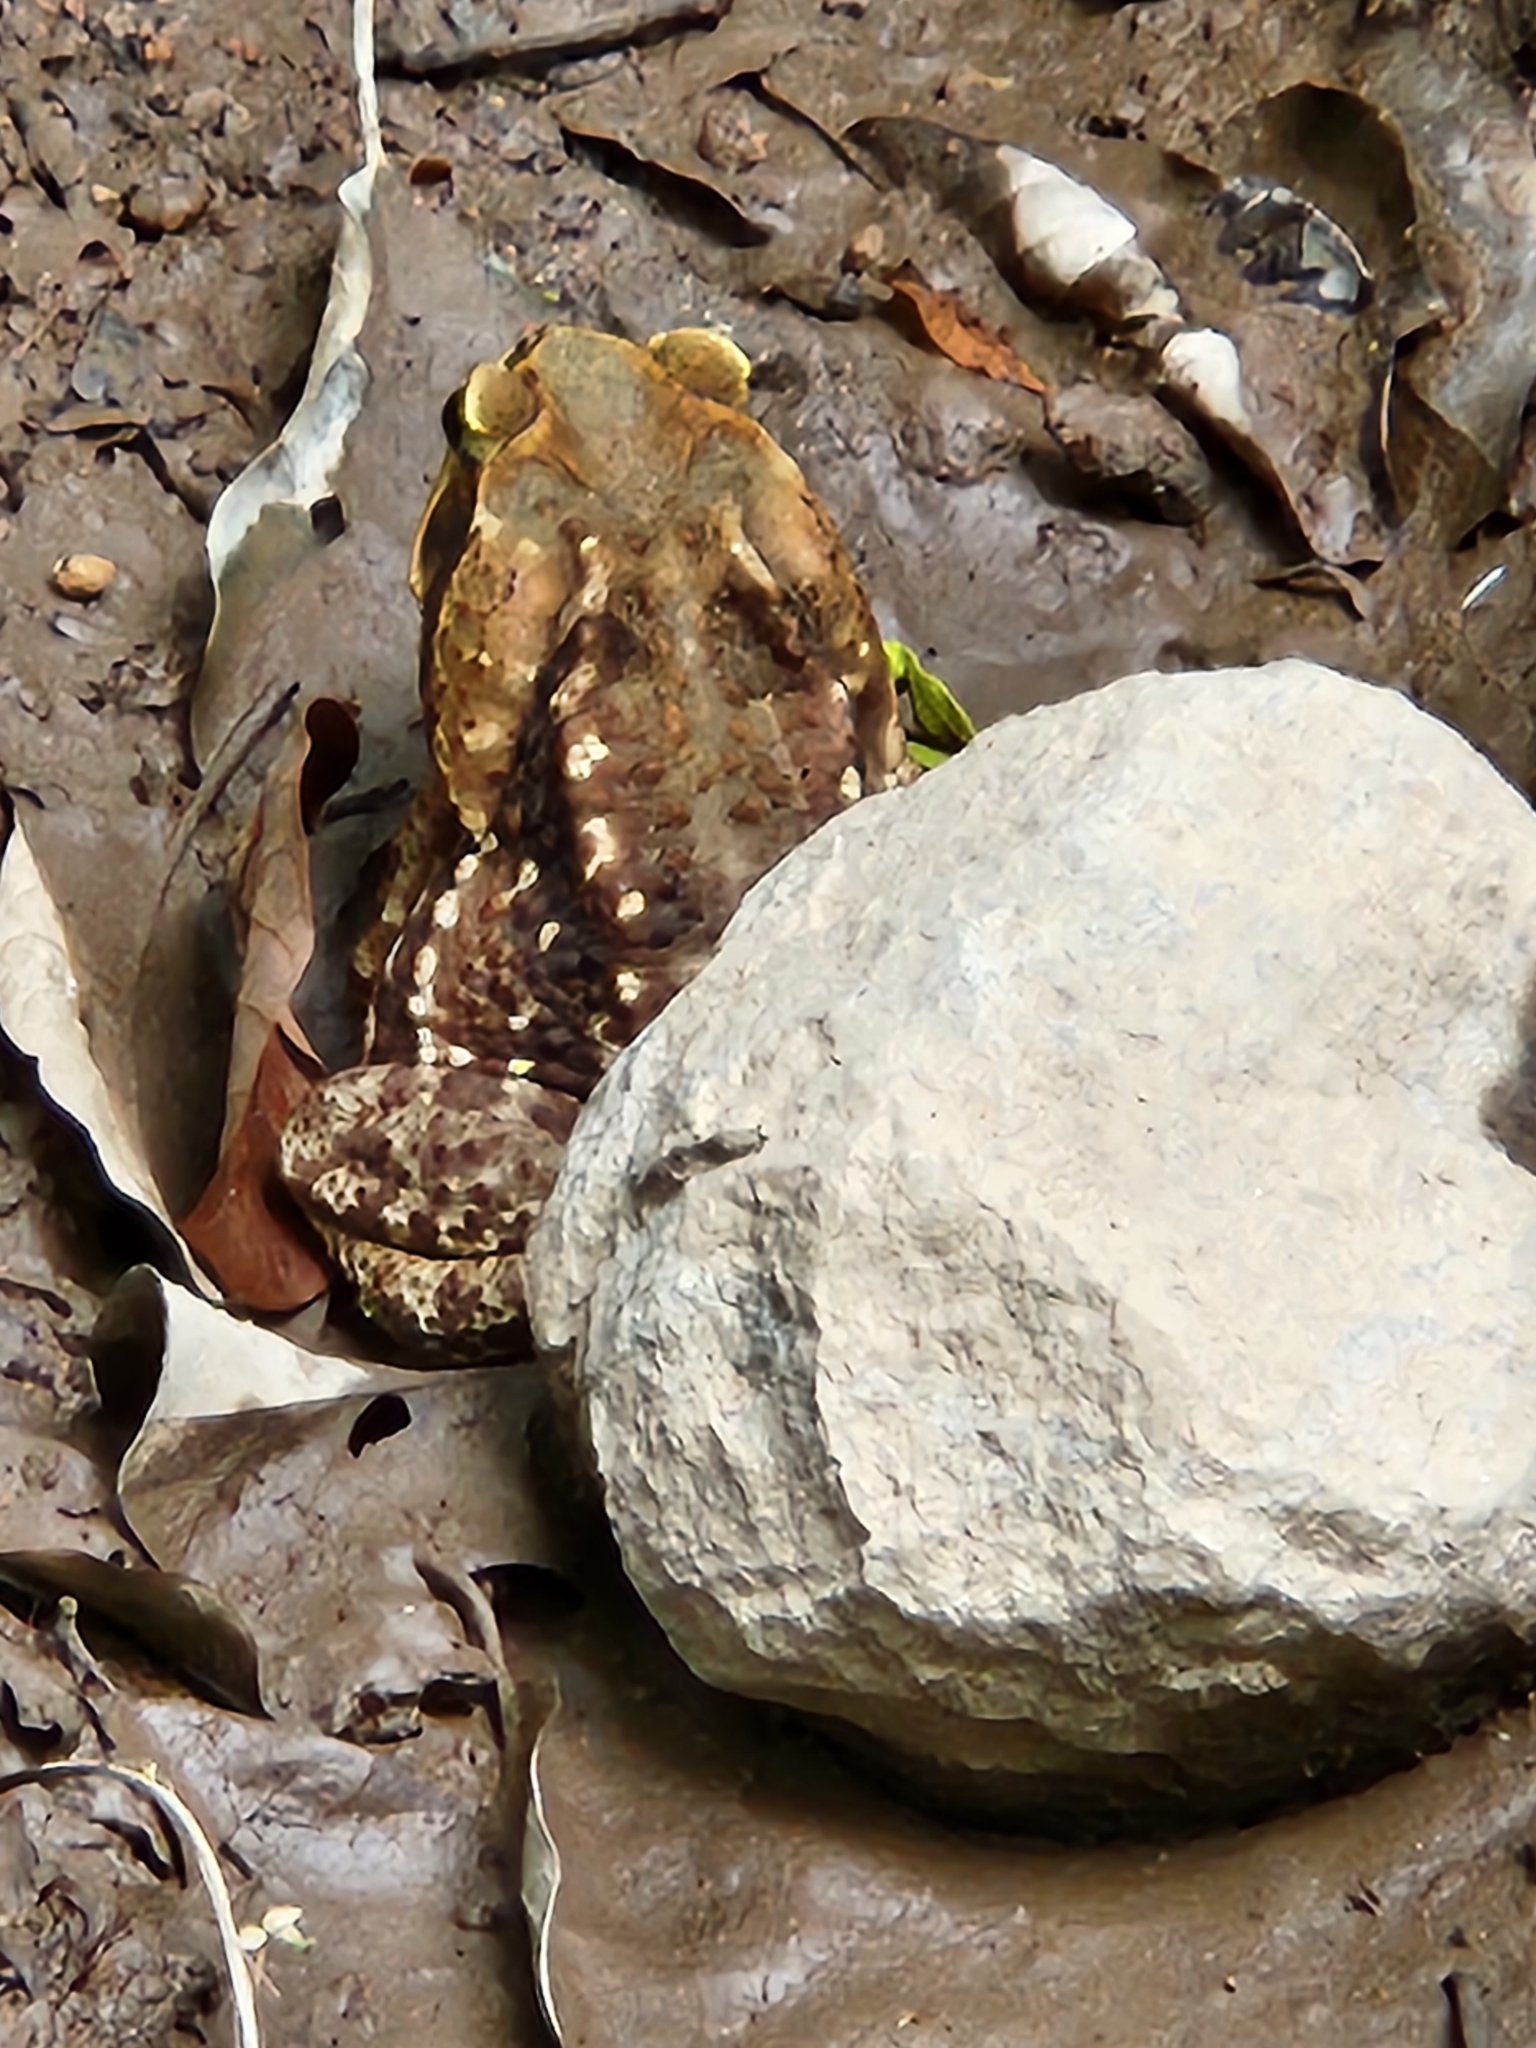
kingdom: Animalia
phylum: Chordata
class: Amphibia
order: Anura
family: Bufonidae
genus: Rhinella
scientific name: Rhinella horribilis
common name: Mesoamerican cane toad
